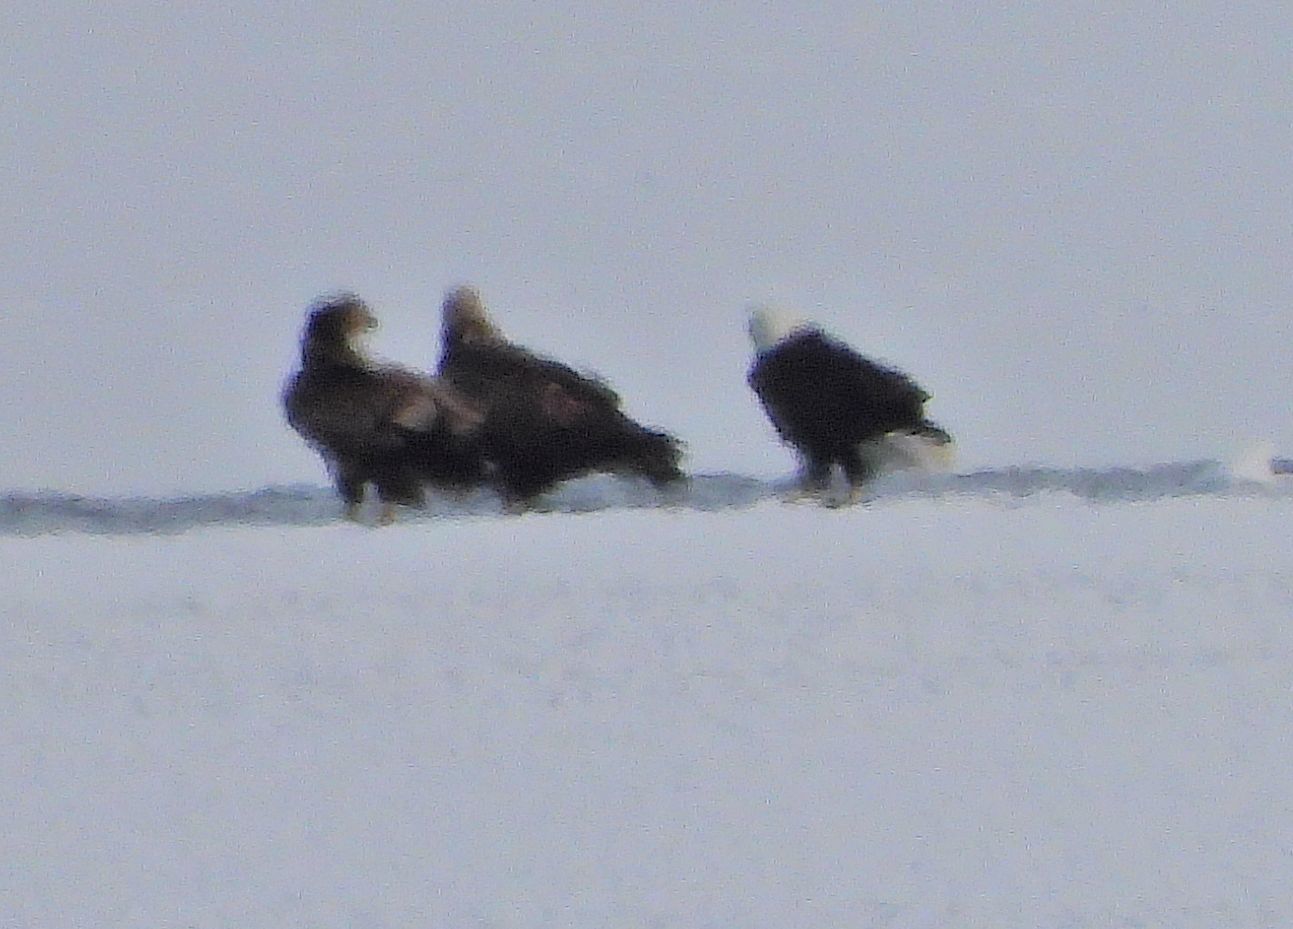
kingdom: Animalia
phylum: Chordata
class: Aves
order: Accipitriformes
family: Accipitridae
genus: Haliaeetus
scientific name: Haliaeetus leucocephalus
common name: Bald eagle
